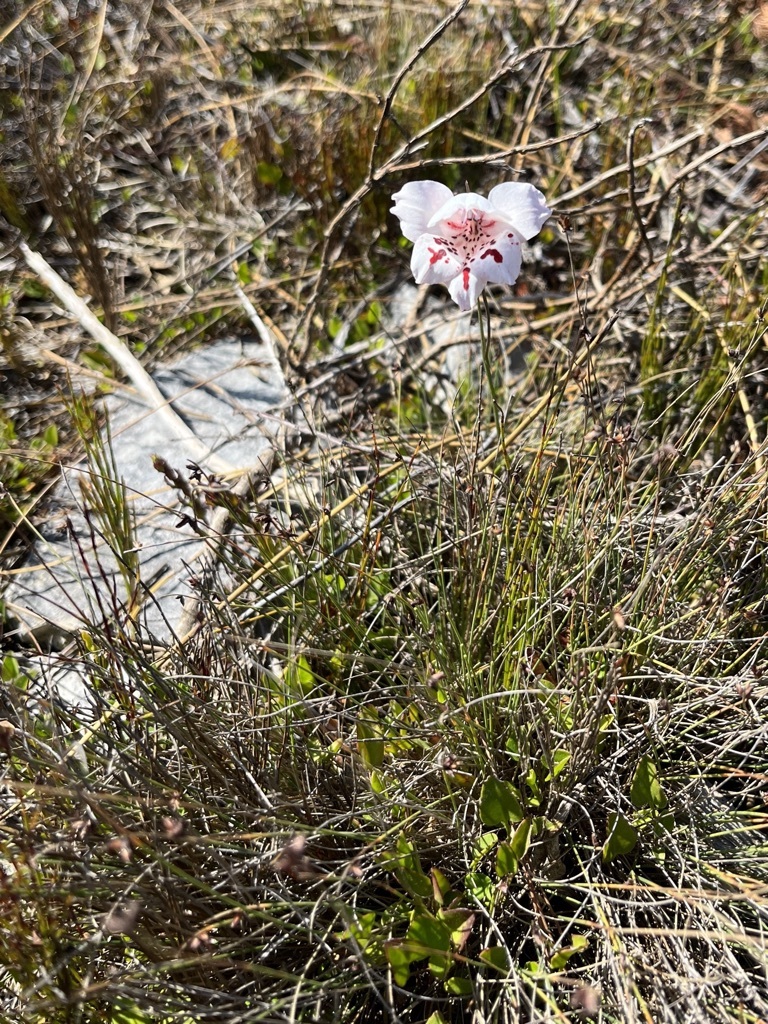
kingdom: Plantae
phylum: Tracheophyta
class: Liliopsida
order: Asparagales
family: Iridaceae
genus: Gladiolus
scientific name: Gladiolus variegatus
